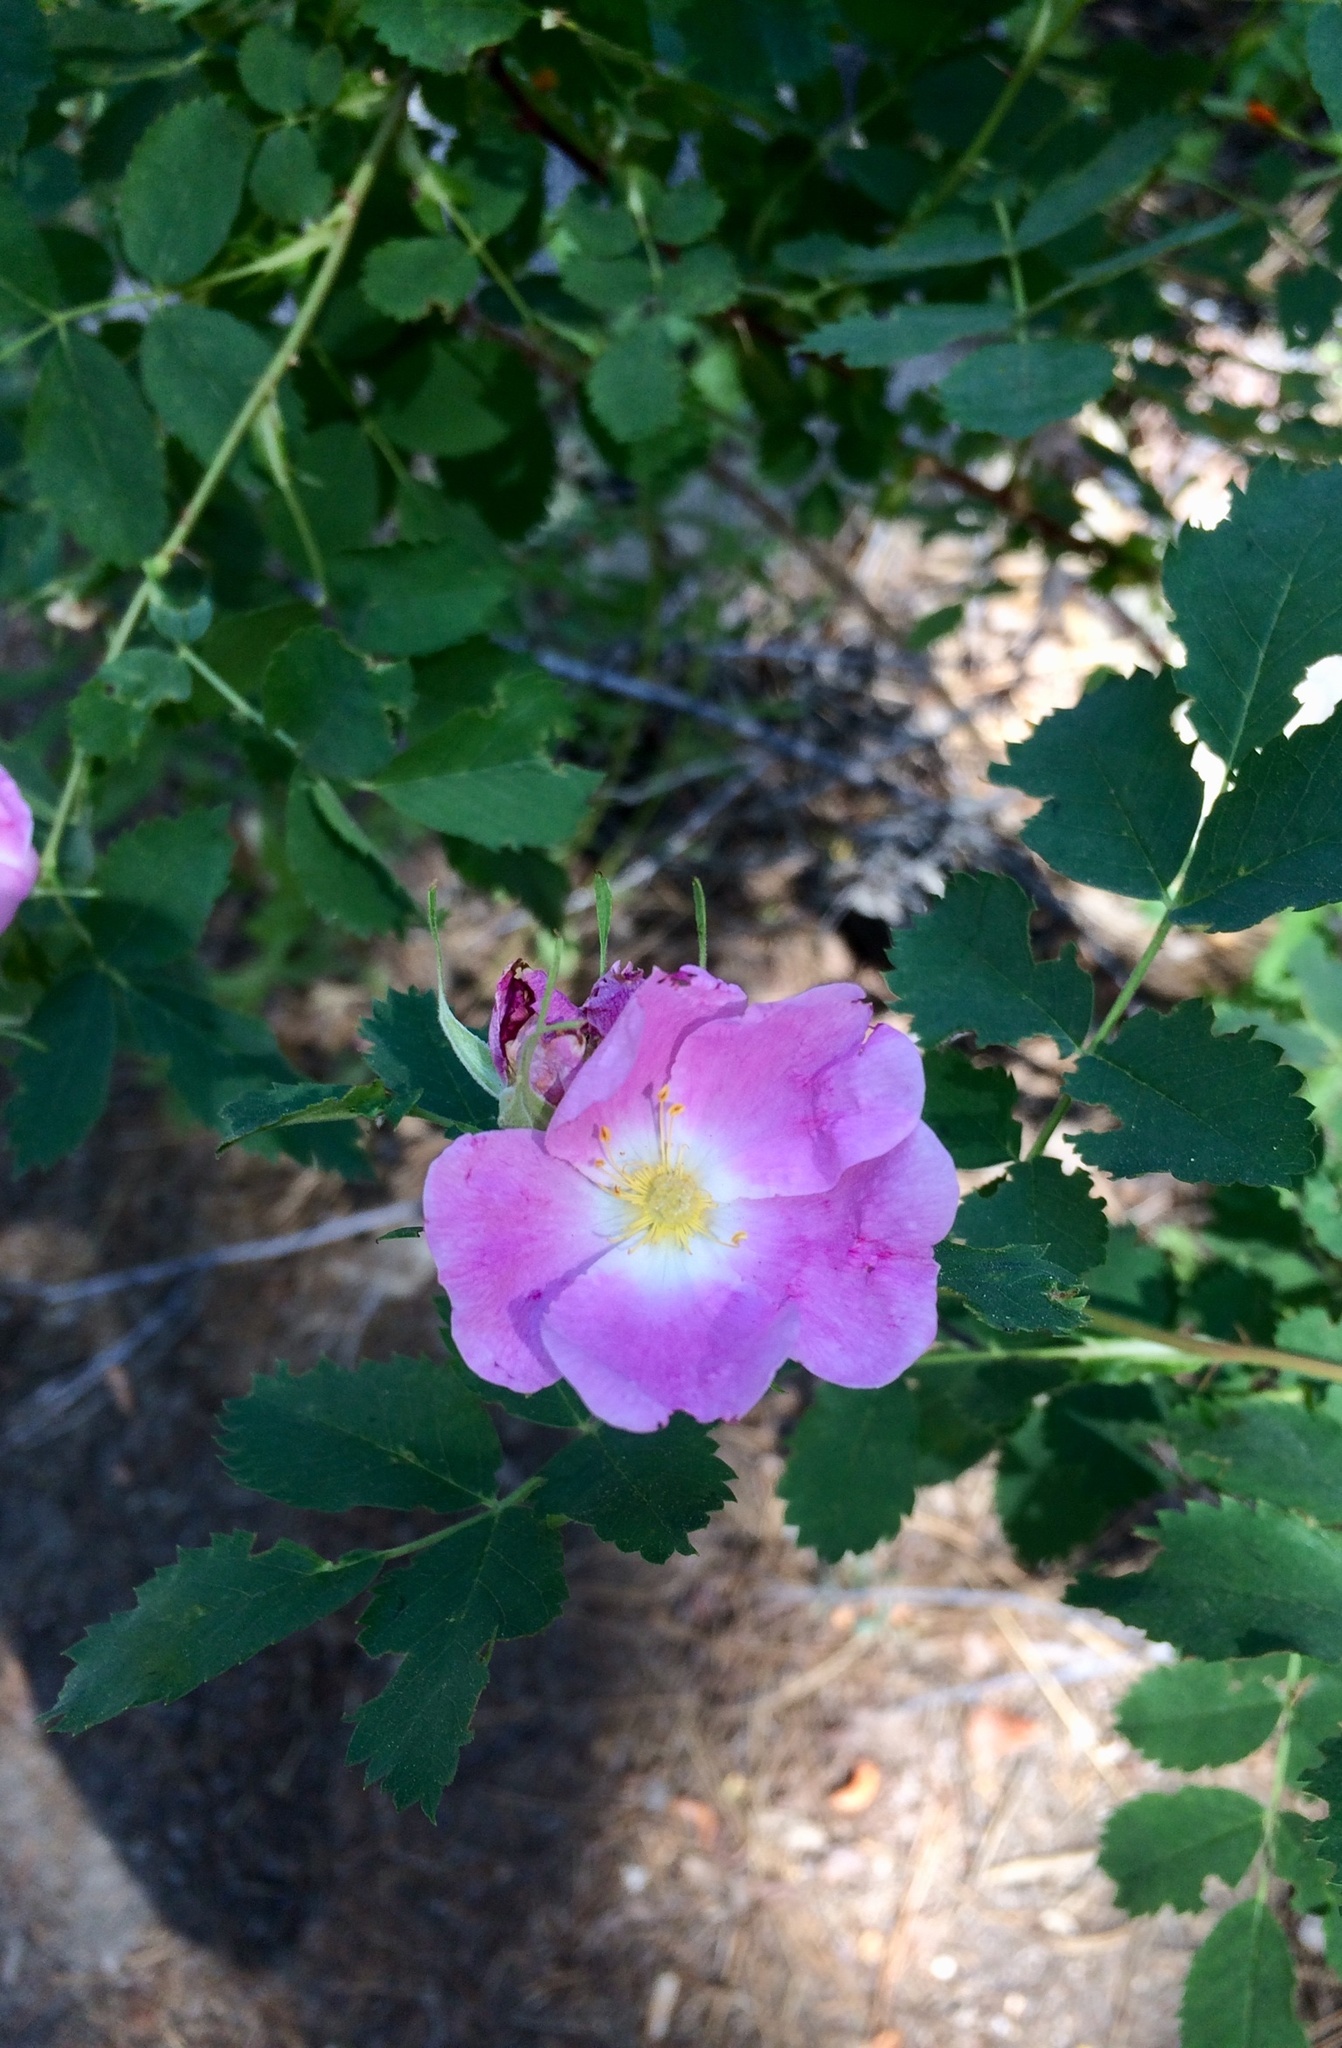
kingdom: Plantae
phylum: Tracheophyta
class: Magnoliopsida
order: Rosales
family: Rosaceae
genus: Rosa
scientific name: Rosa woodsii
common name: Woods's rose
